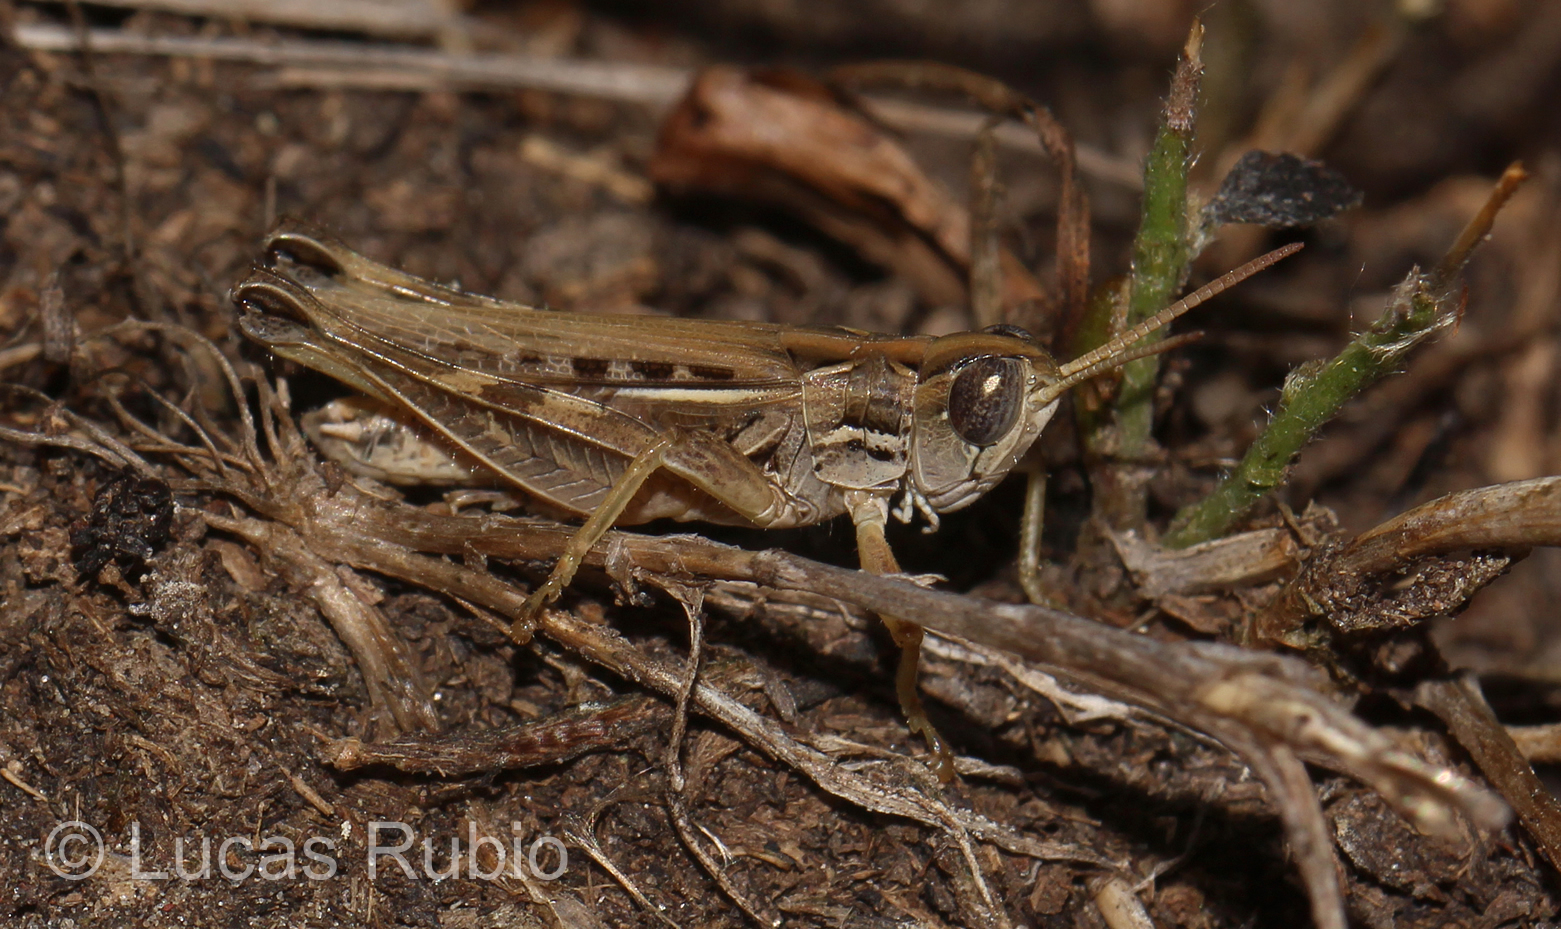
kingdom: Animalia
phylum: Arthropoda
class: Insecta
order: Orthoptera
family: Acrididae
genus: Borellia
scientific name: Borellia bruneri
